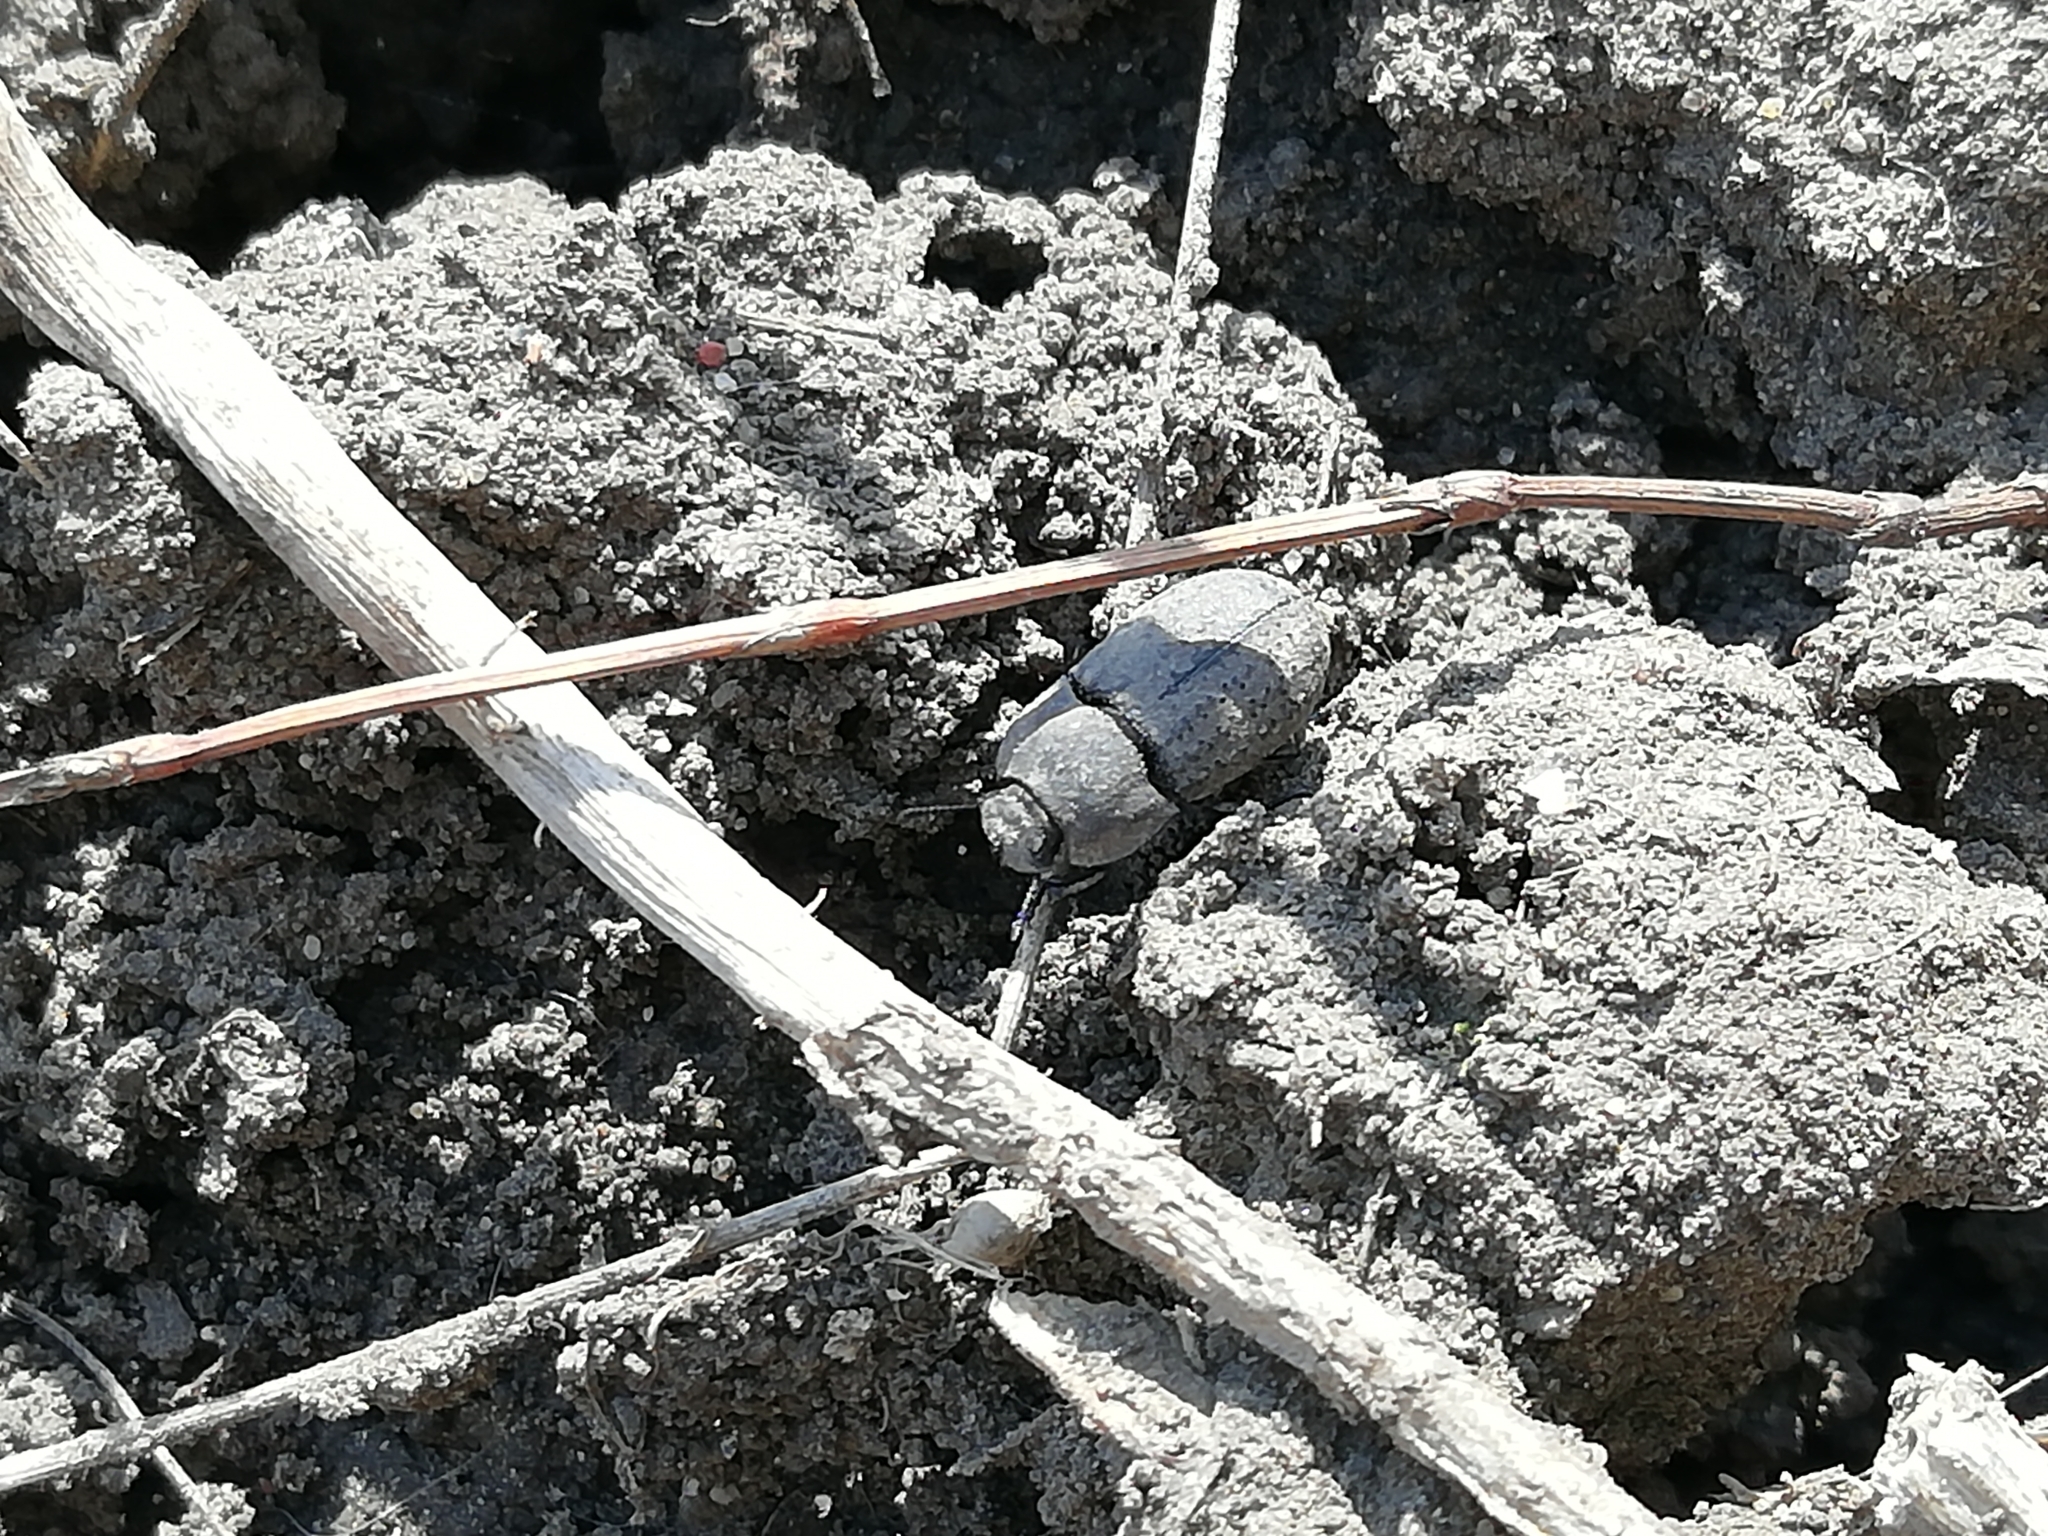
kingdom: Animalia
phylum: Arthropoda
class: Insecta
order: Coleoptera
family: Tenebrionidae
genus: Opatrum
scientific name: Opatrum sabulosum
